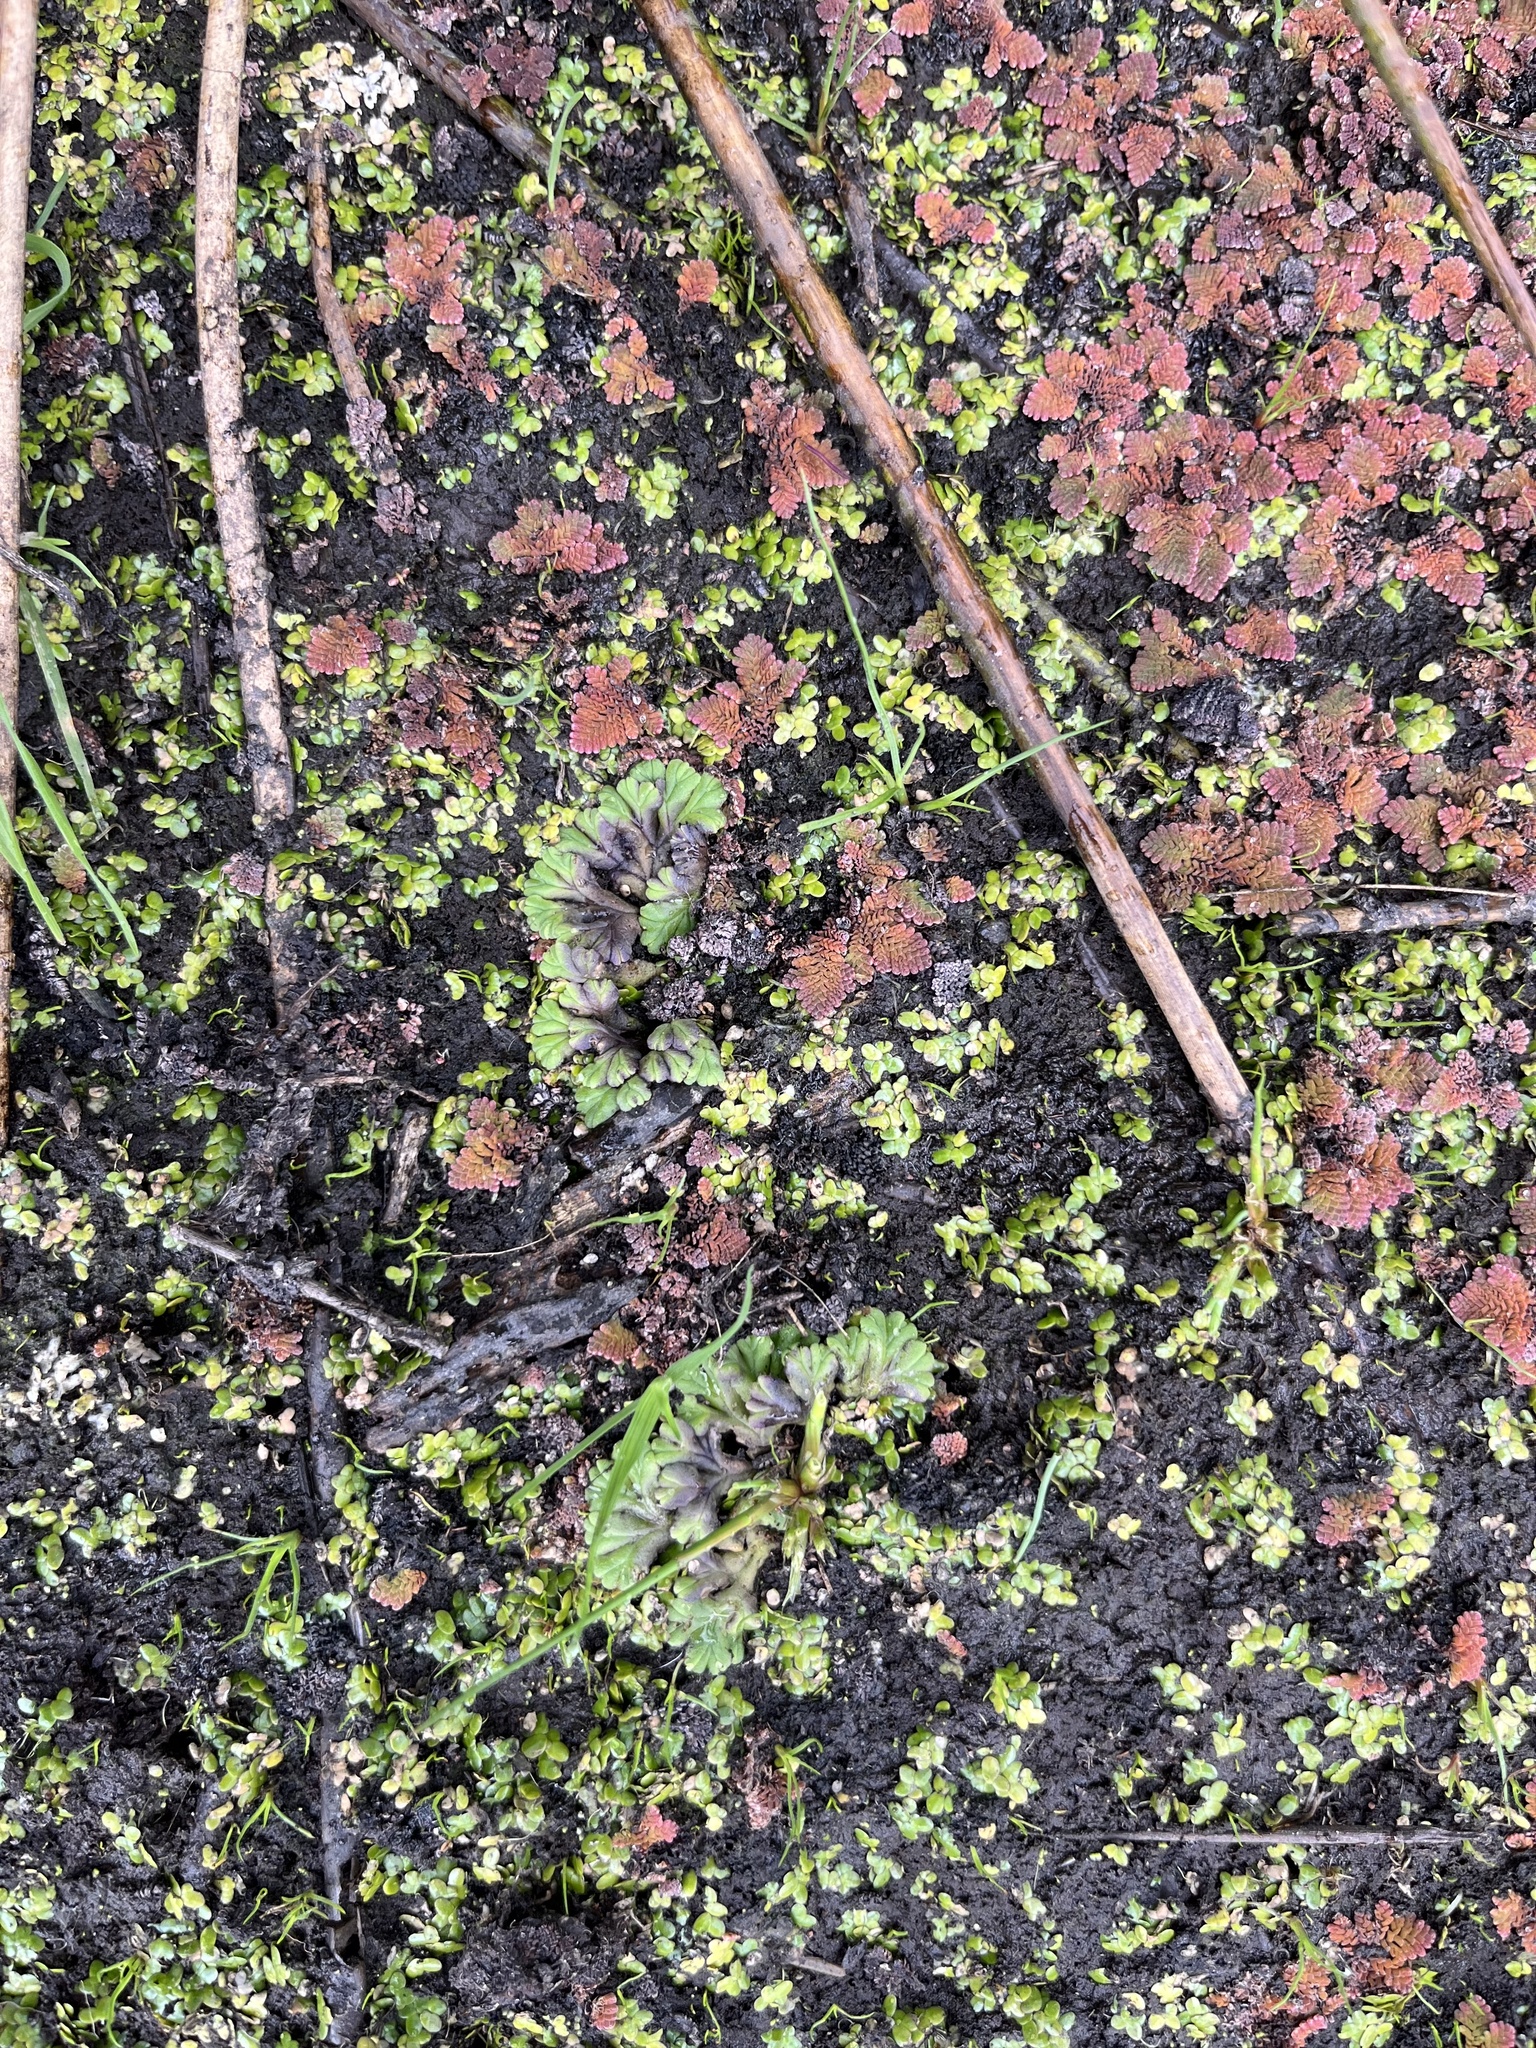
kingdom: Plantae
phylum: Marchantiophyta
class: Marchantiopsida
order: Marchantiales
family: Ricciaceae
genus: Ricciocarpos
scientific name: Ricciocarpos natans
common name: Purple-fringed liverwort
